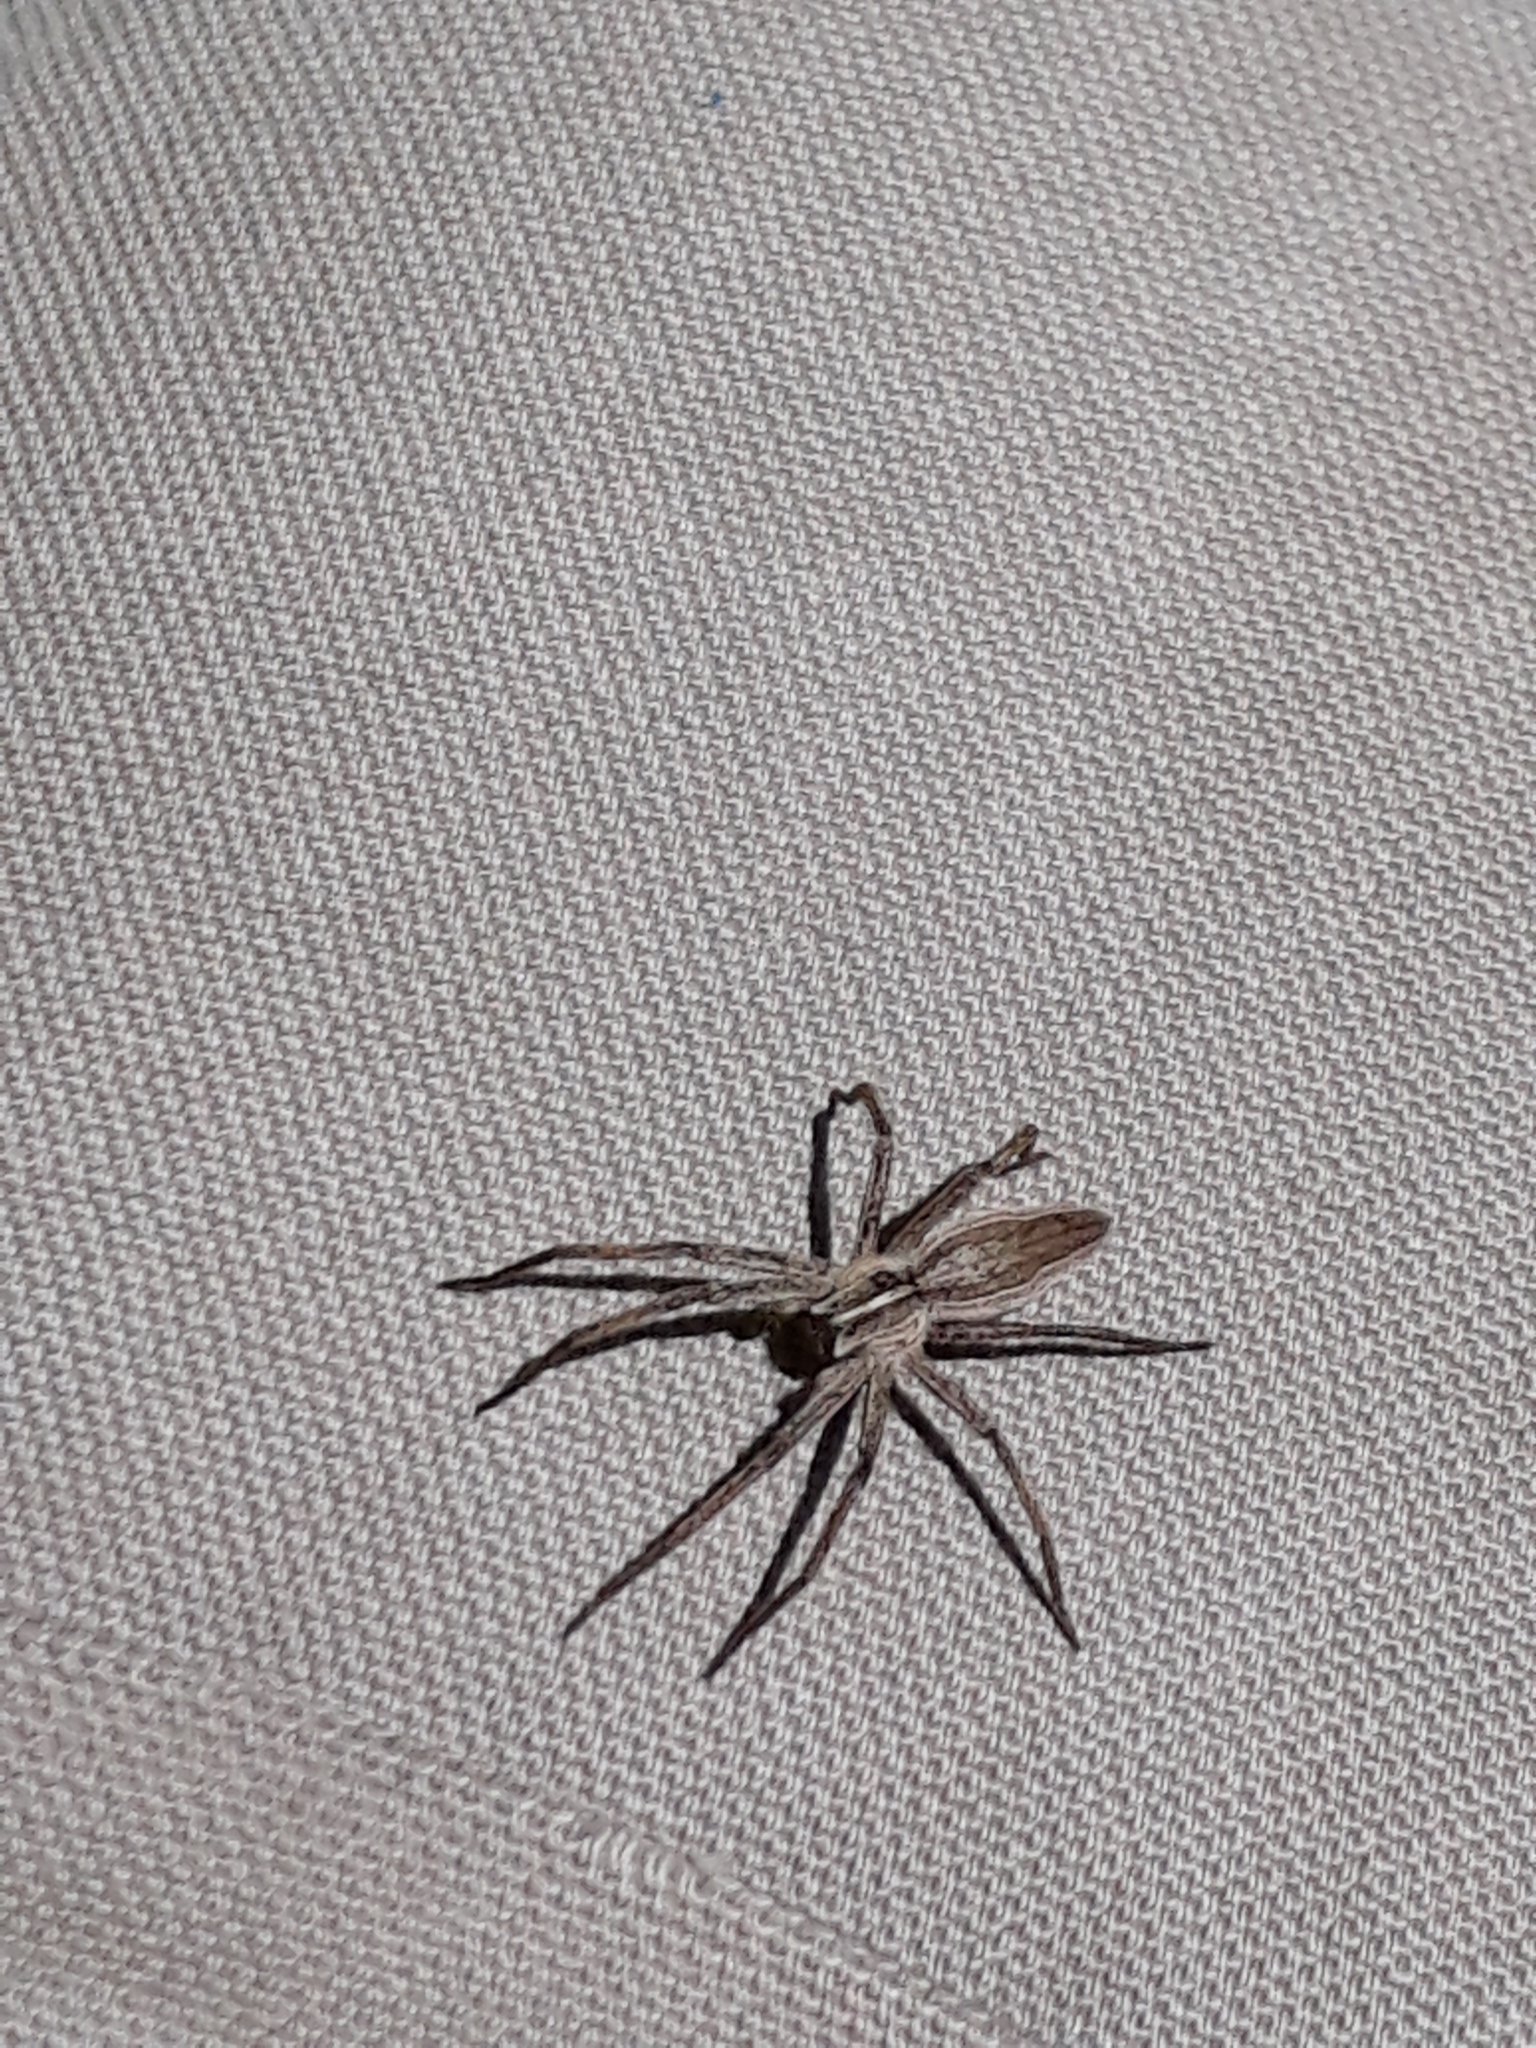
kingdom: Animalia
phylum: Arthropoda
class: Arachnida
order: Araneae
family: Pisauridae
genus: Pisaura
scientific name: Pisaura mirabilis
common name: Tent spider
